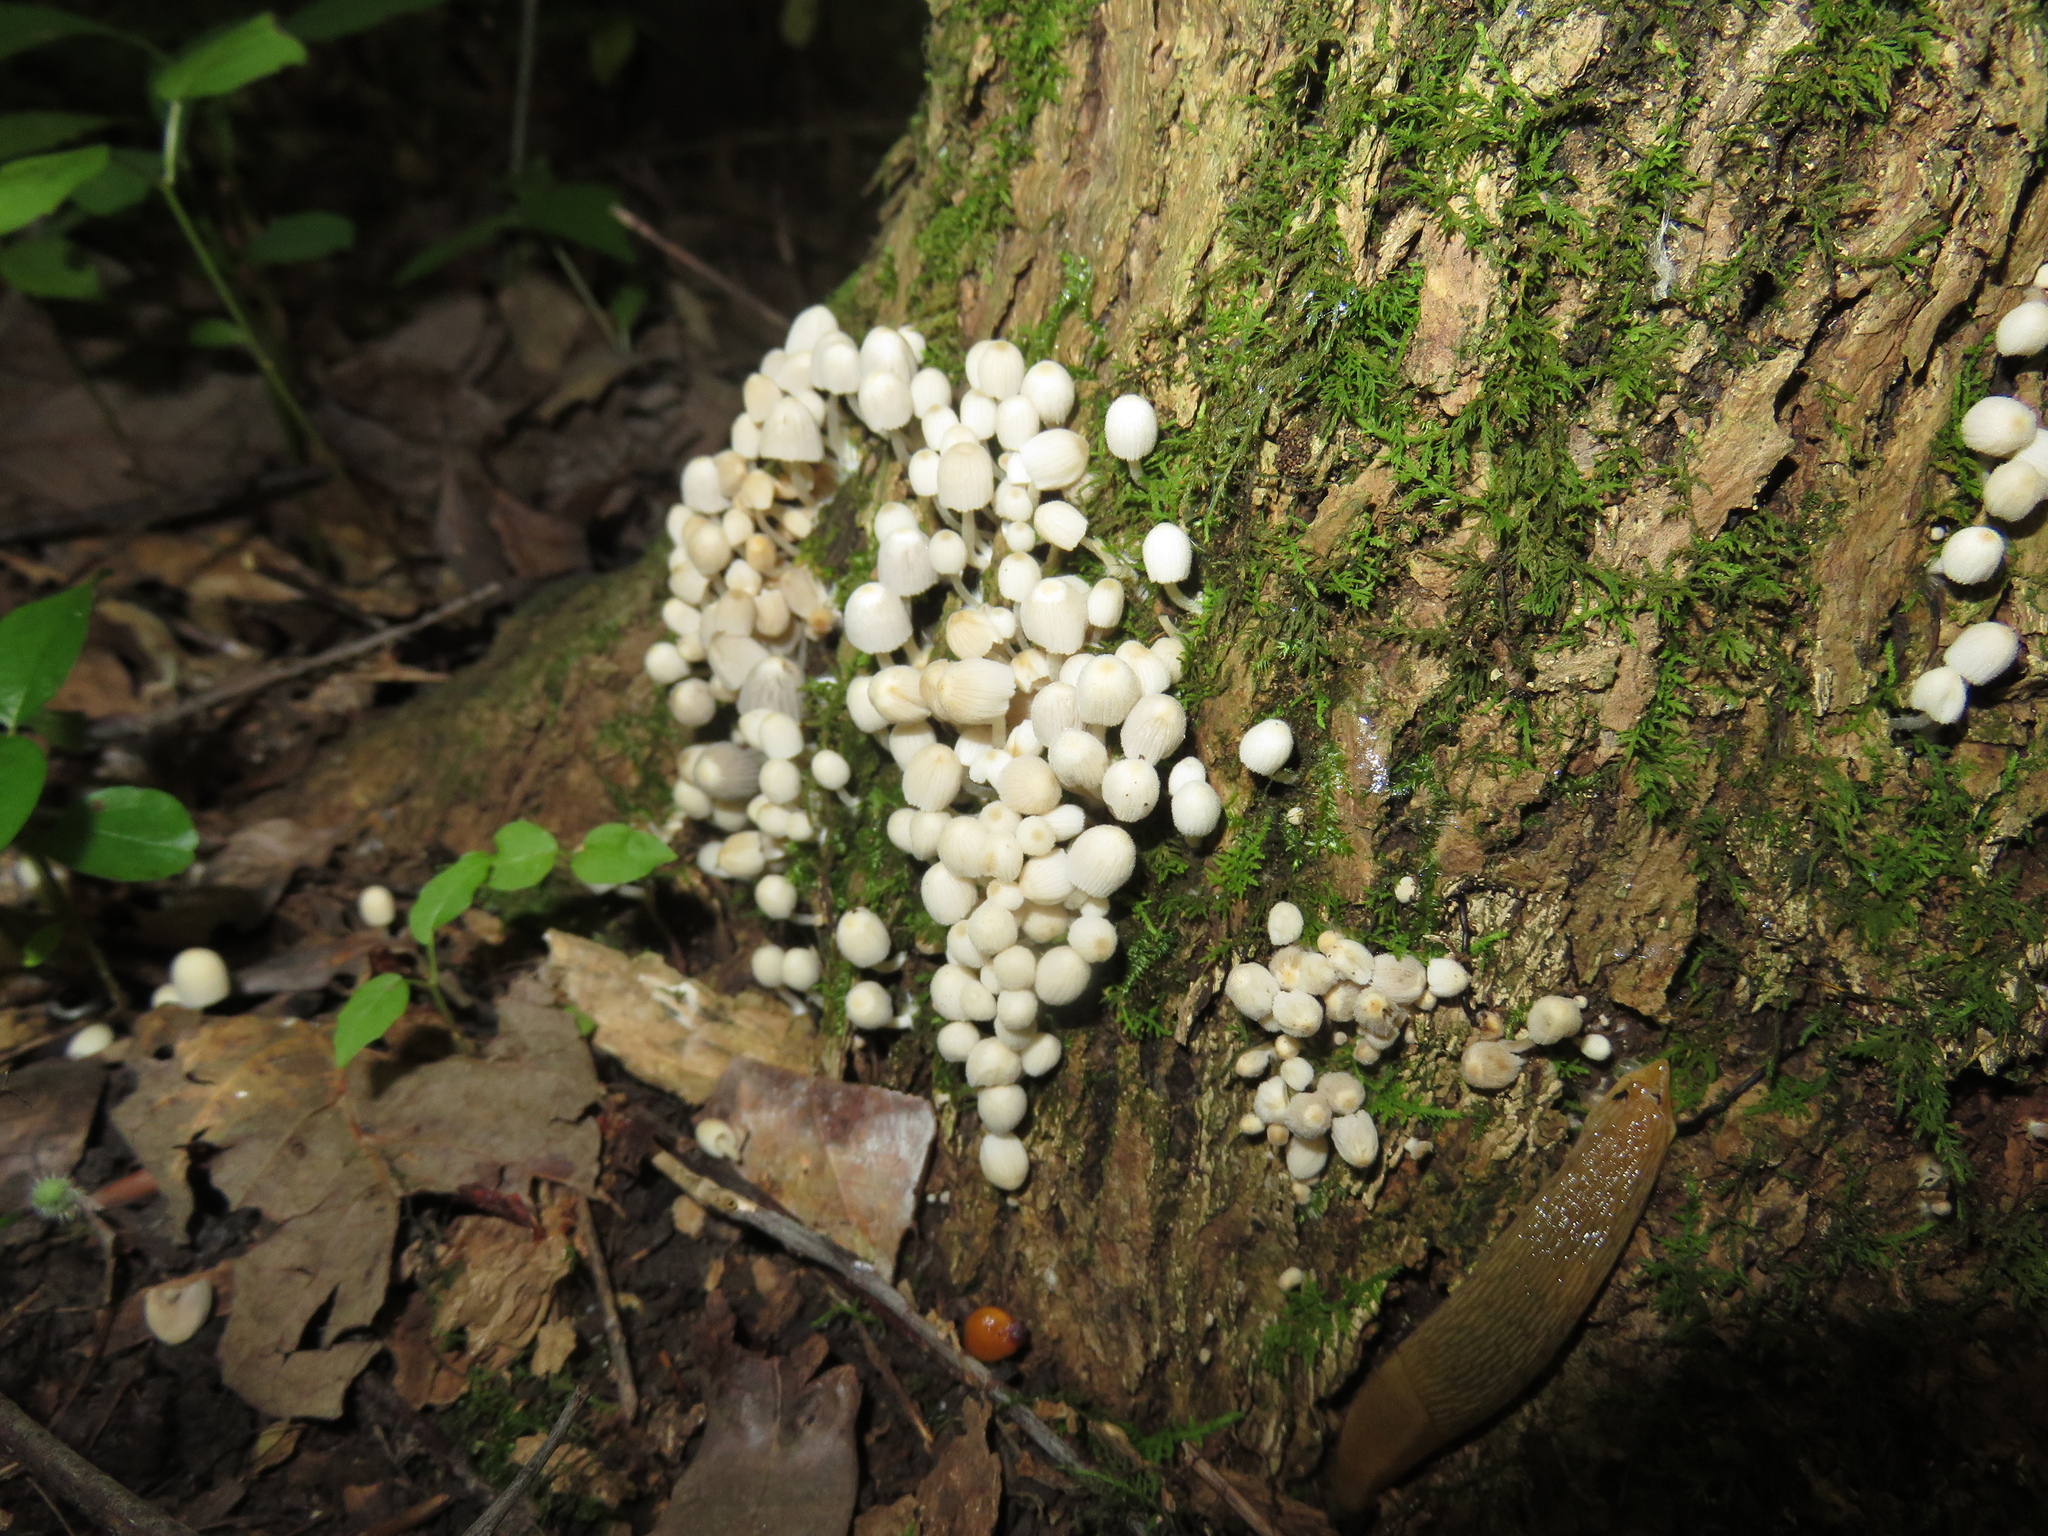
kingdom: Fungi
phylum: Basidiomycota
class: Agaricomycetes
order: Agaricales
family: Psathyrellaceae
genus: Coprinellus
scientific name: Coprinellus disseminatus
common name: Fairies' bonnets
